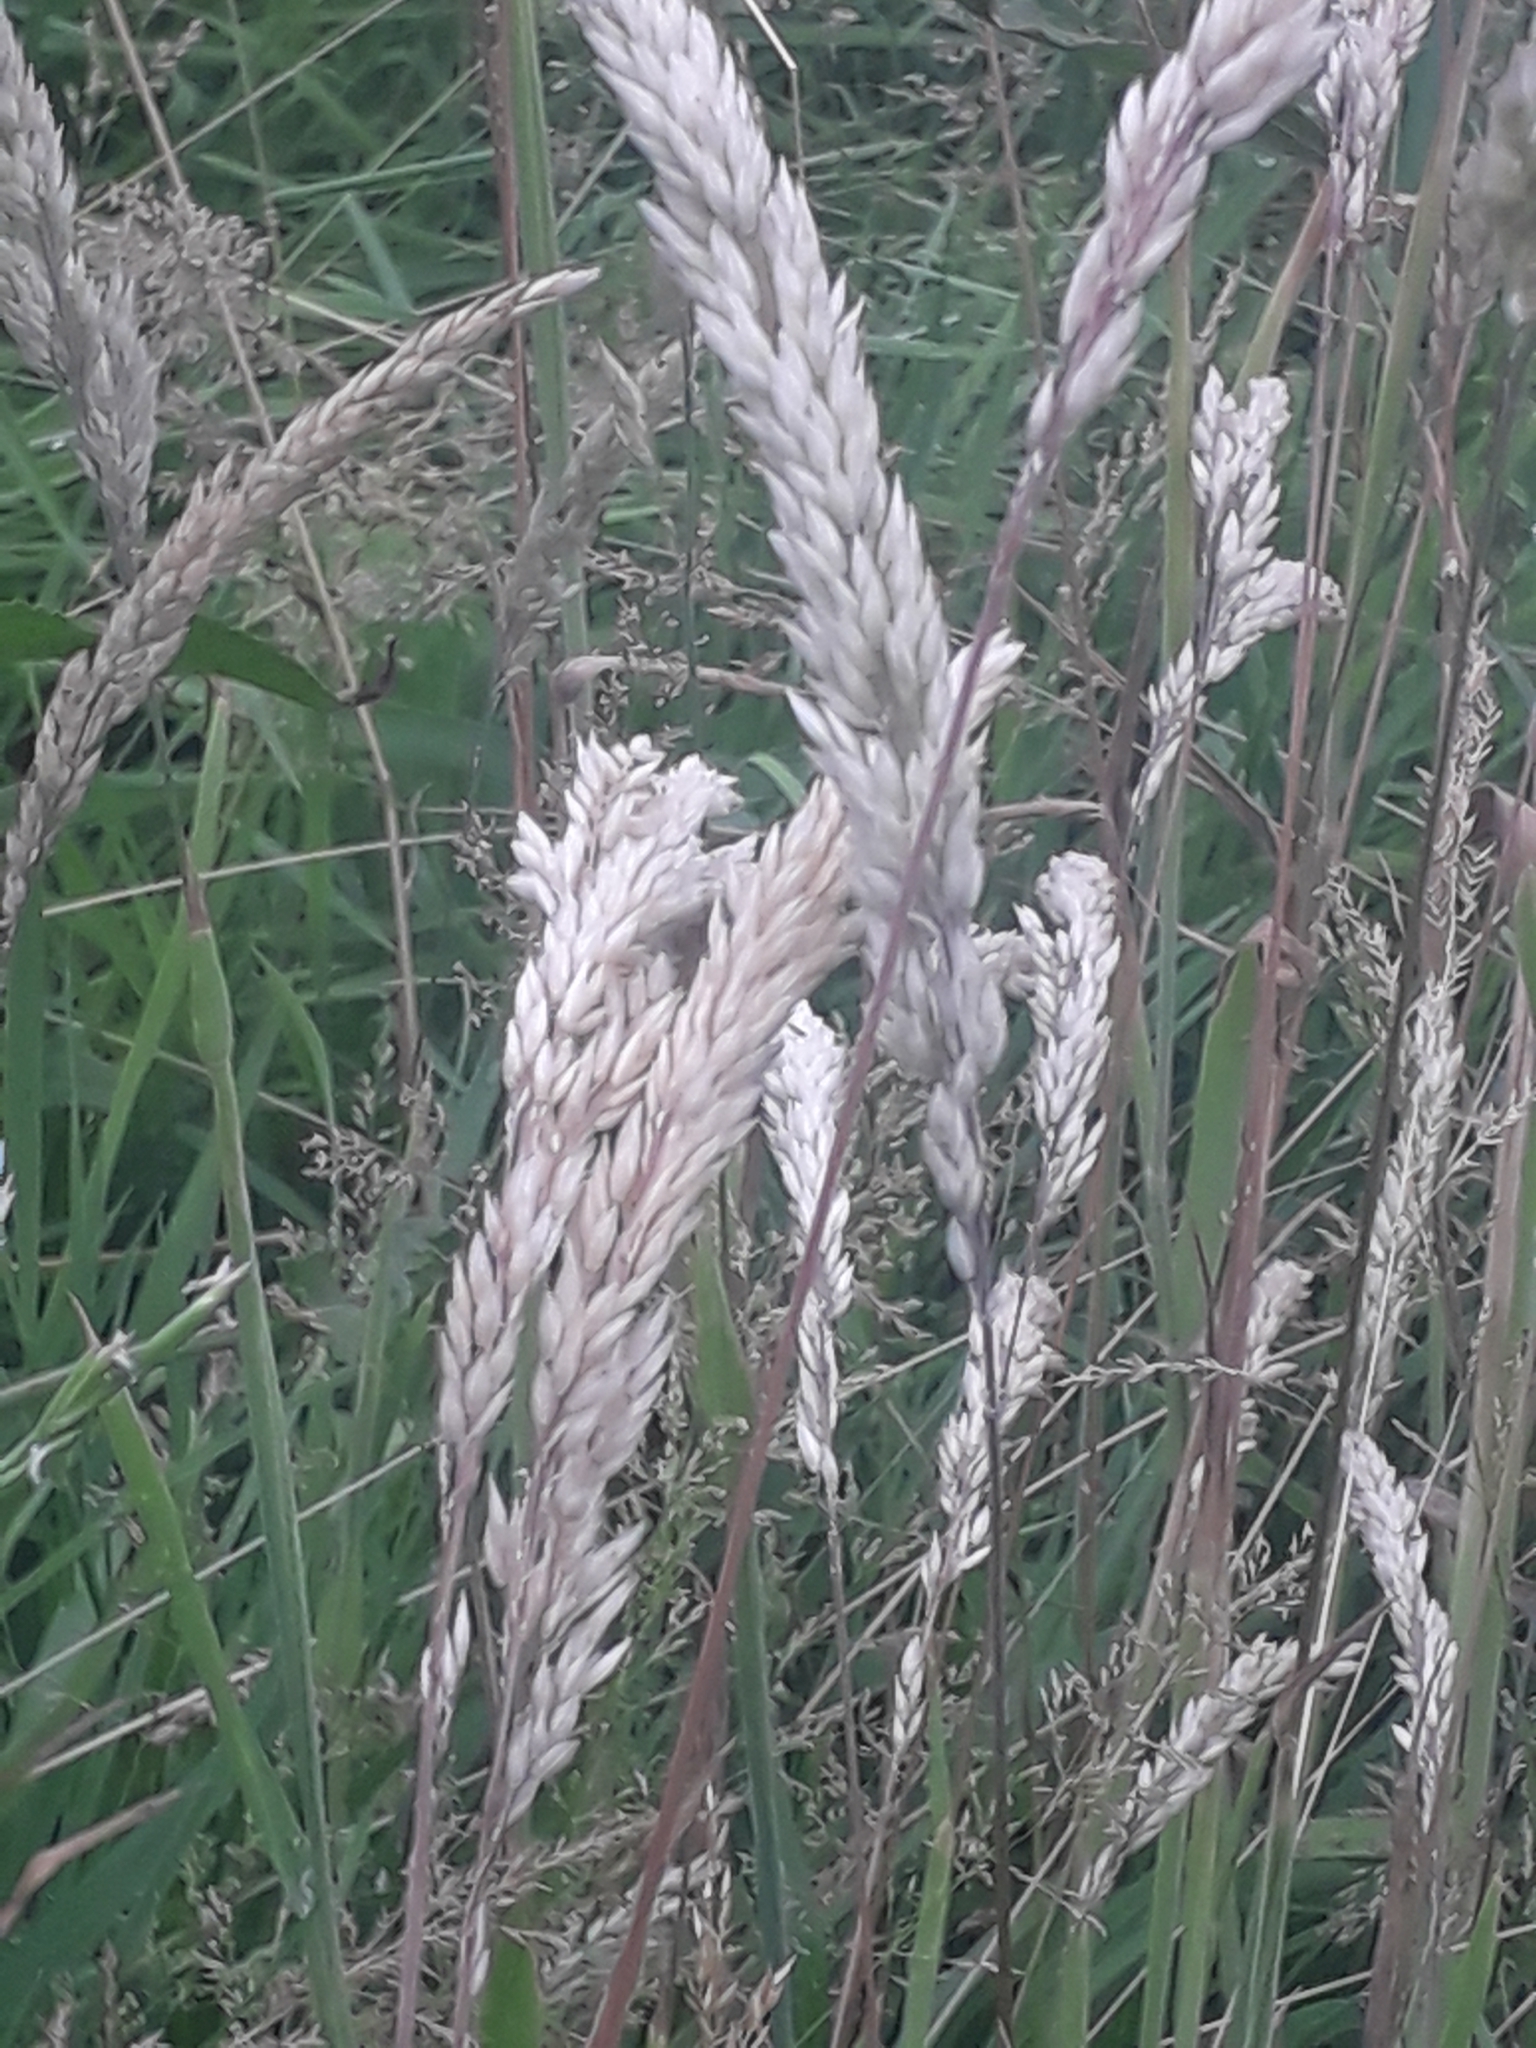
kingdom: Plantae
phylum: Tracheophyta
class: Liliopsida
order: Poales
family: Poaceae
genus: Holcus
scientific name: Holcus lanatus
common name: Yorkshire-fog
